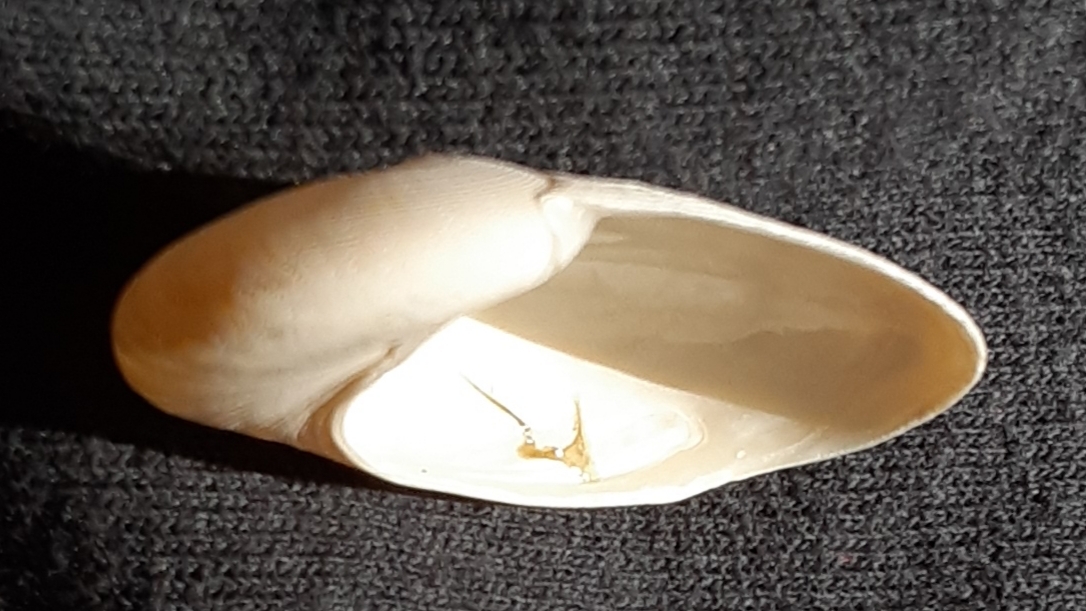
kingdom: Animalia
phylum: Mollusca
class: Gastropoda
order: Littorinimorpha
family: Naticidae
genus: Sinum
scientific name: Sinum perspectivum
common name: White baby ear
